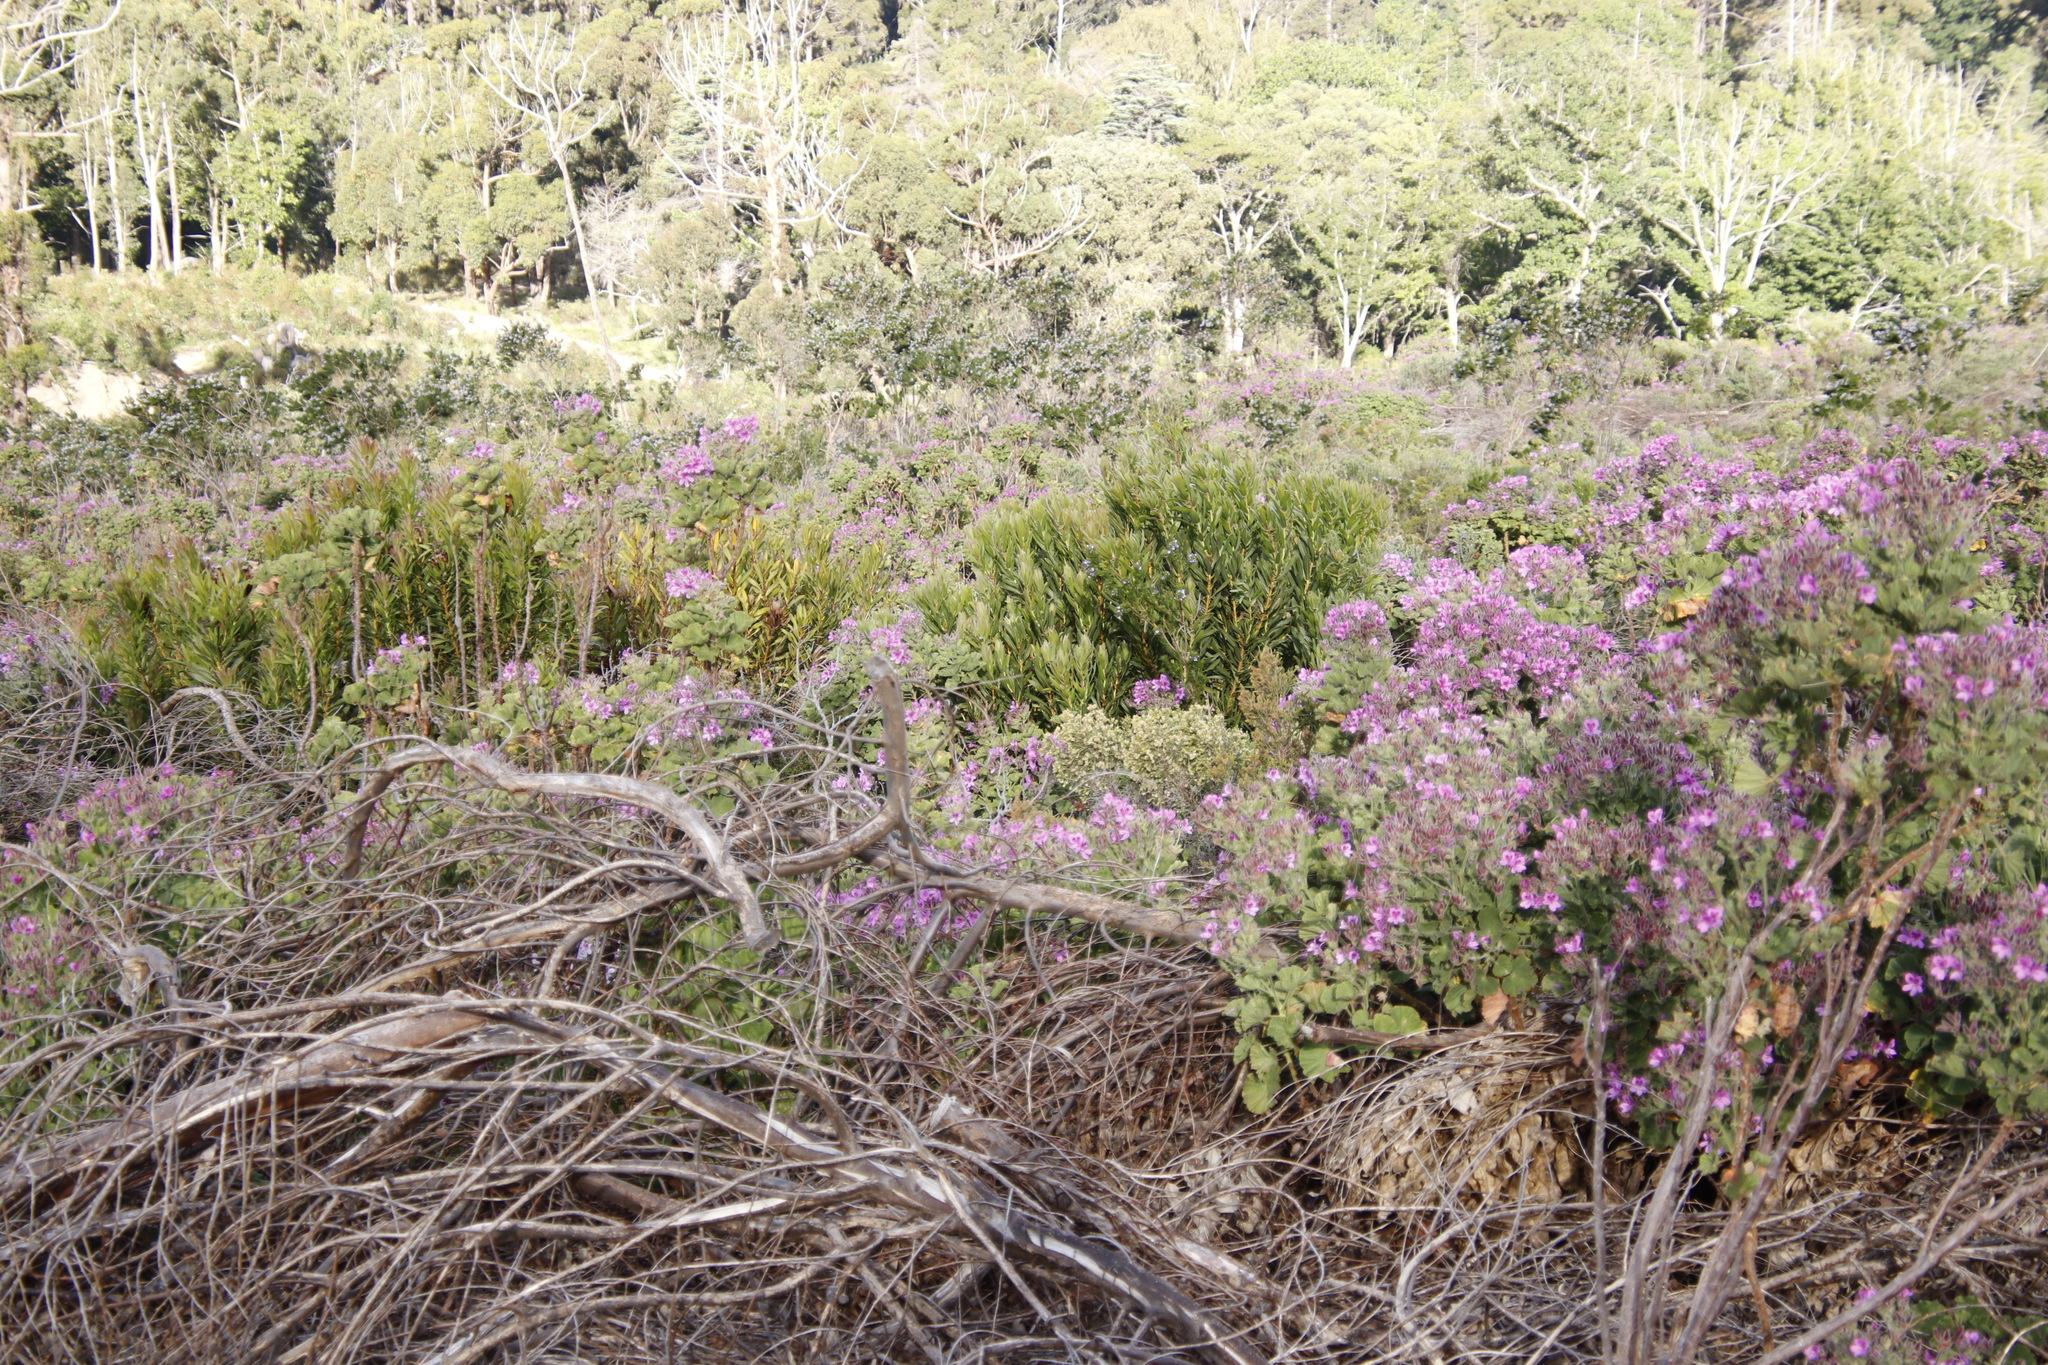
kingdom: Plantae
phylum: Tracheophyta
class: Magnoliopsida
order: Proteales
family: Proteaceae
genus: Protea
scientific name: Protea lepidocarpodendron
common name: Black-bearded protea
